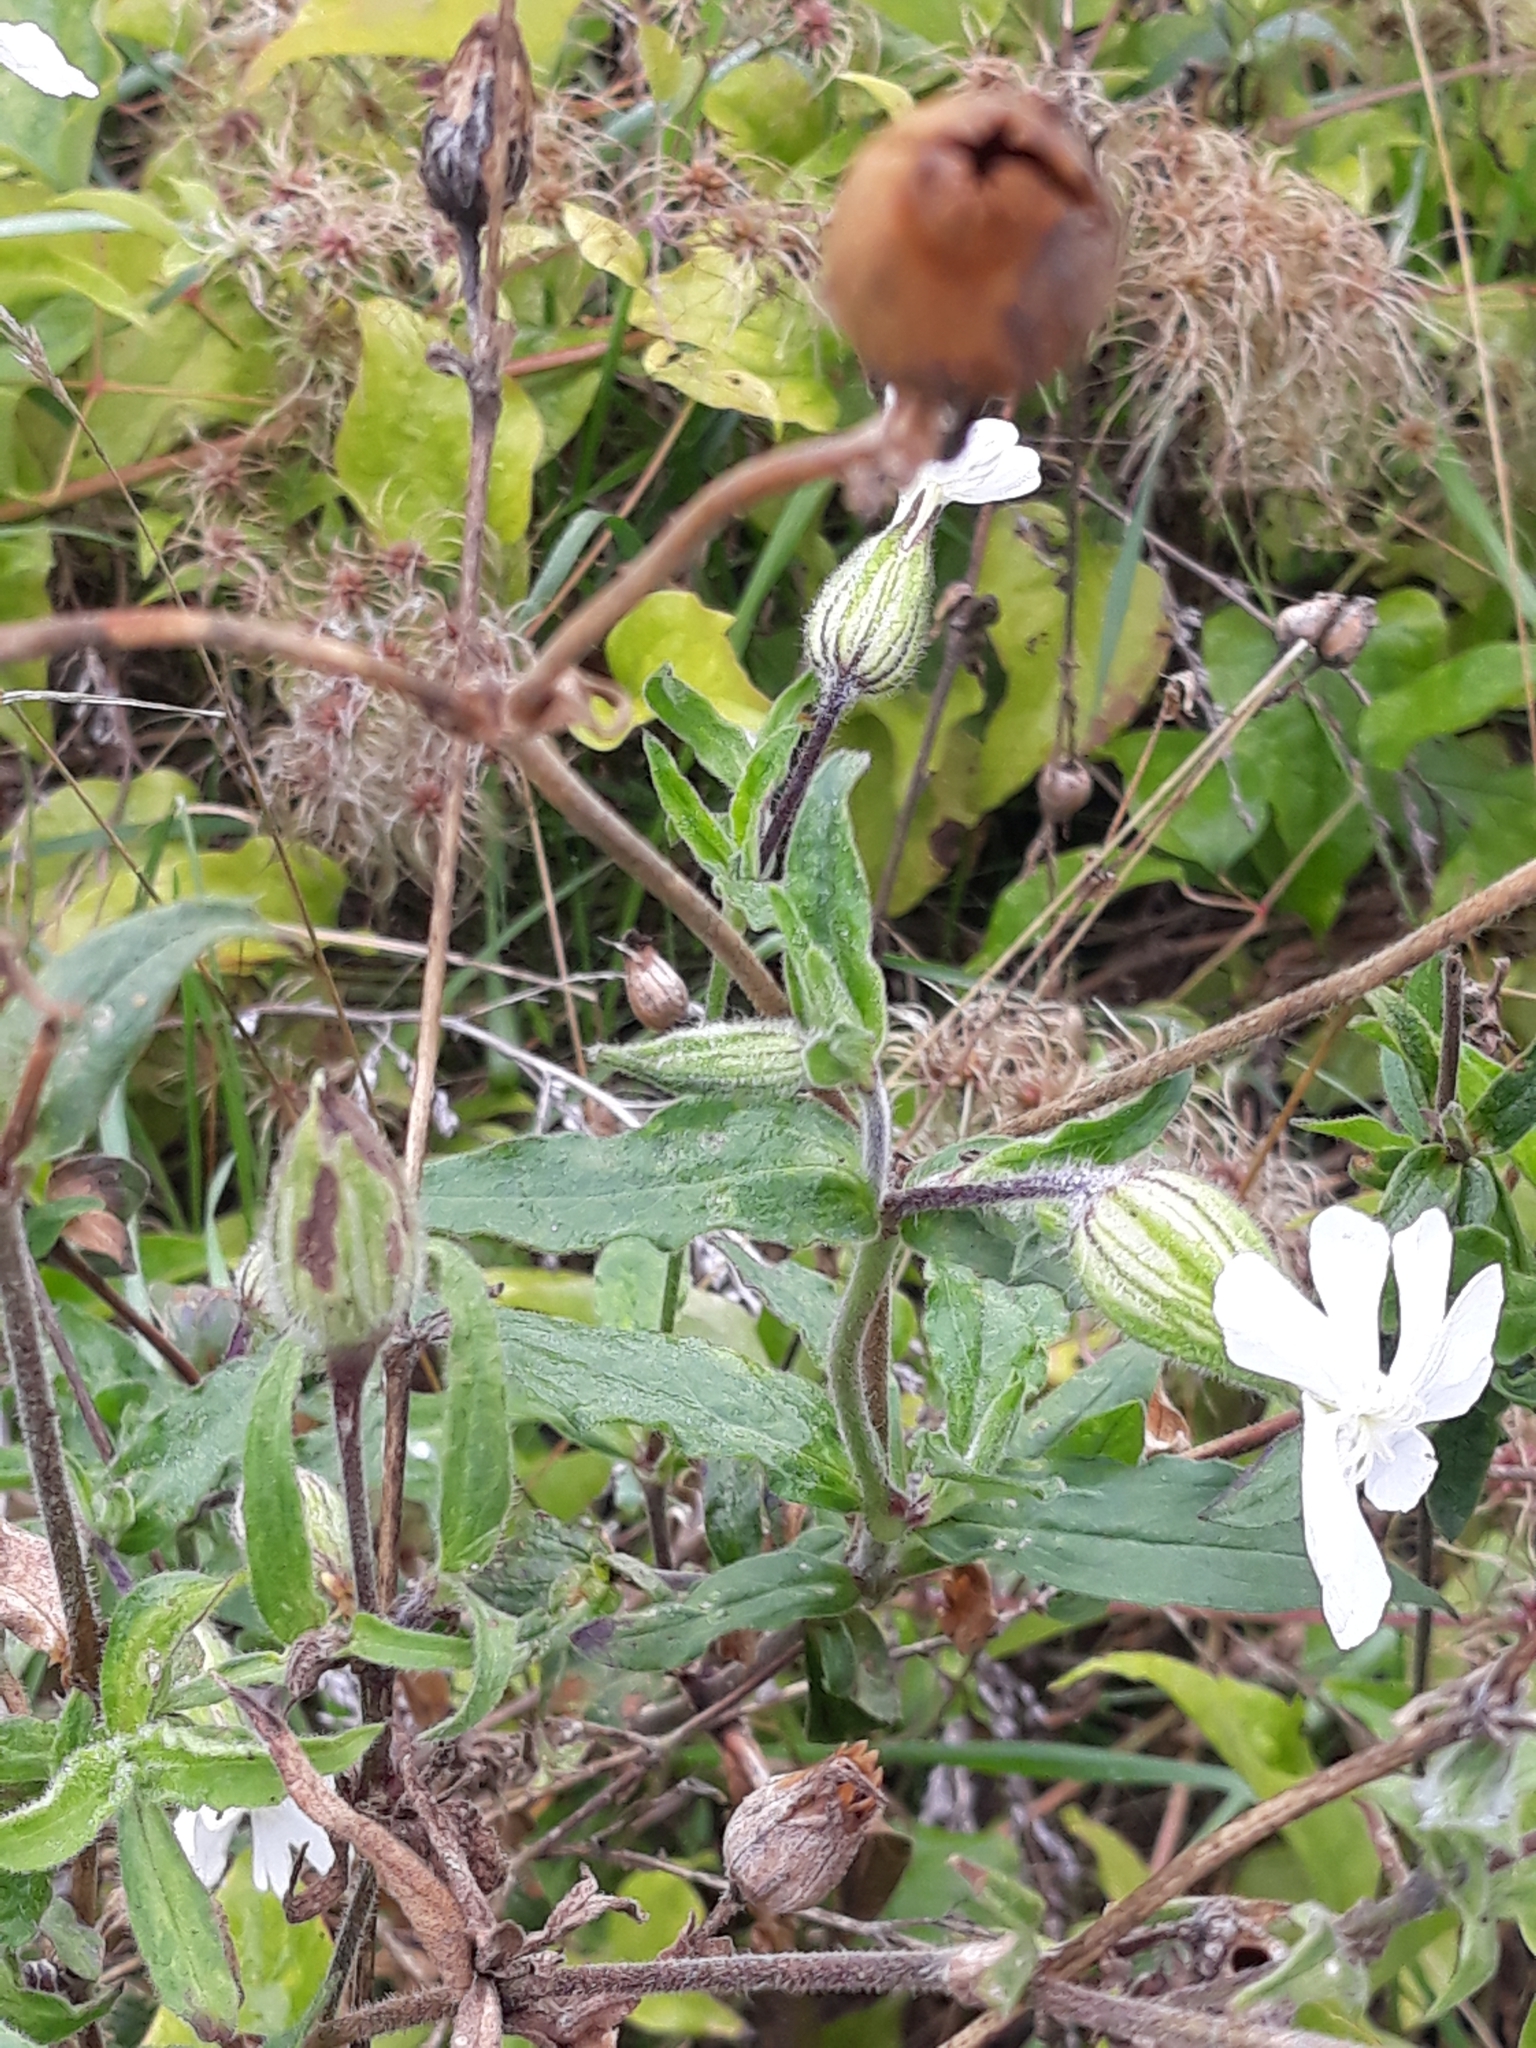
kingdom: Plantae
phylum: Tracheophyta
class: Magnoliopsida
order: Caryophyllales
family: Caryophyllaceae
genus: Silene
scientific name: Silene latifolia
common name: White campion
